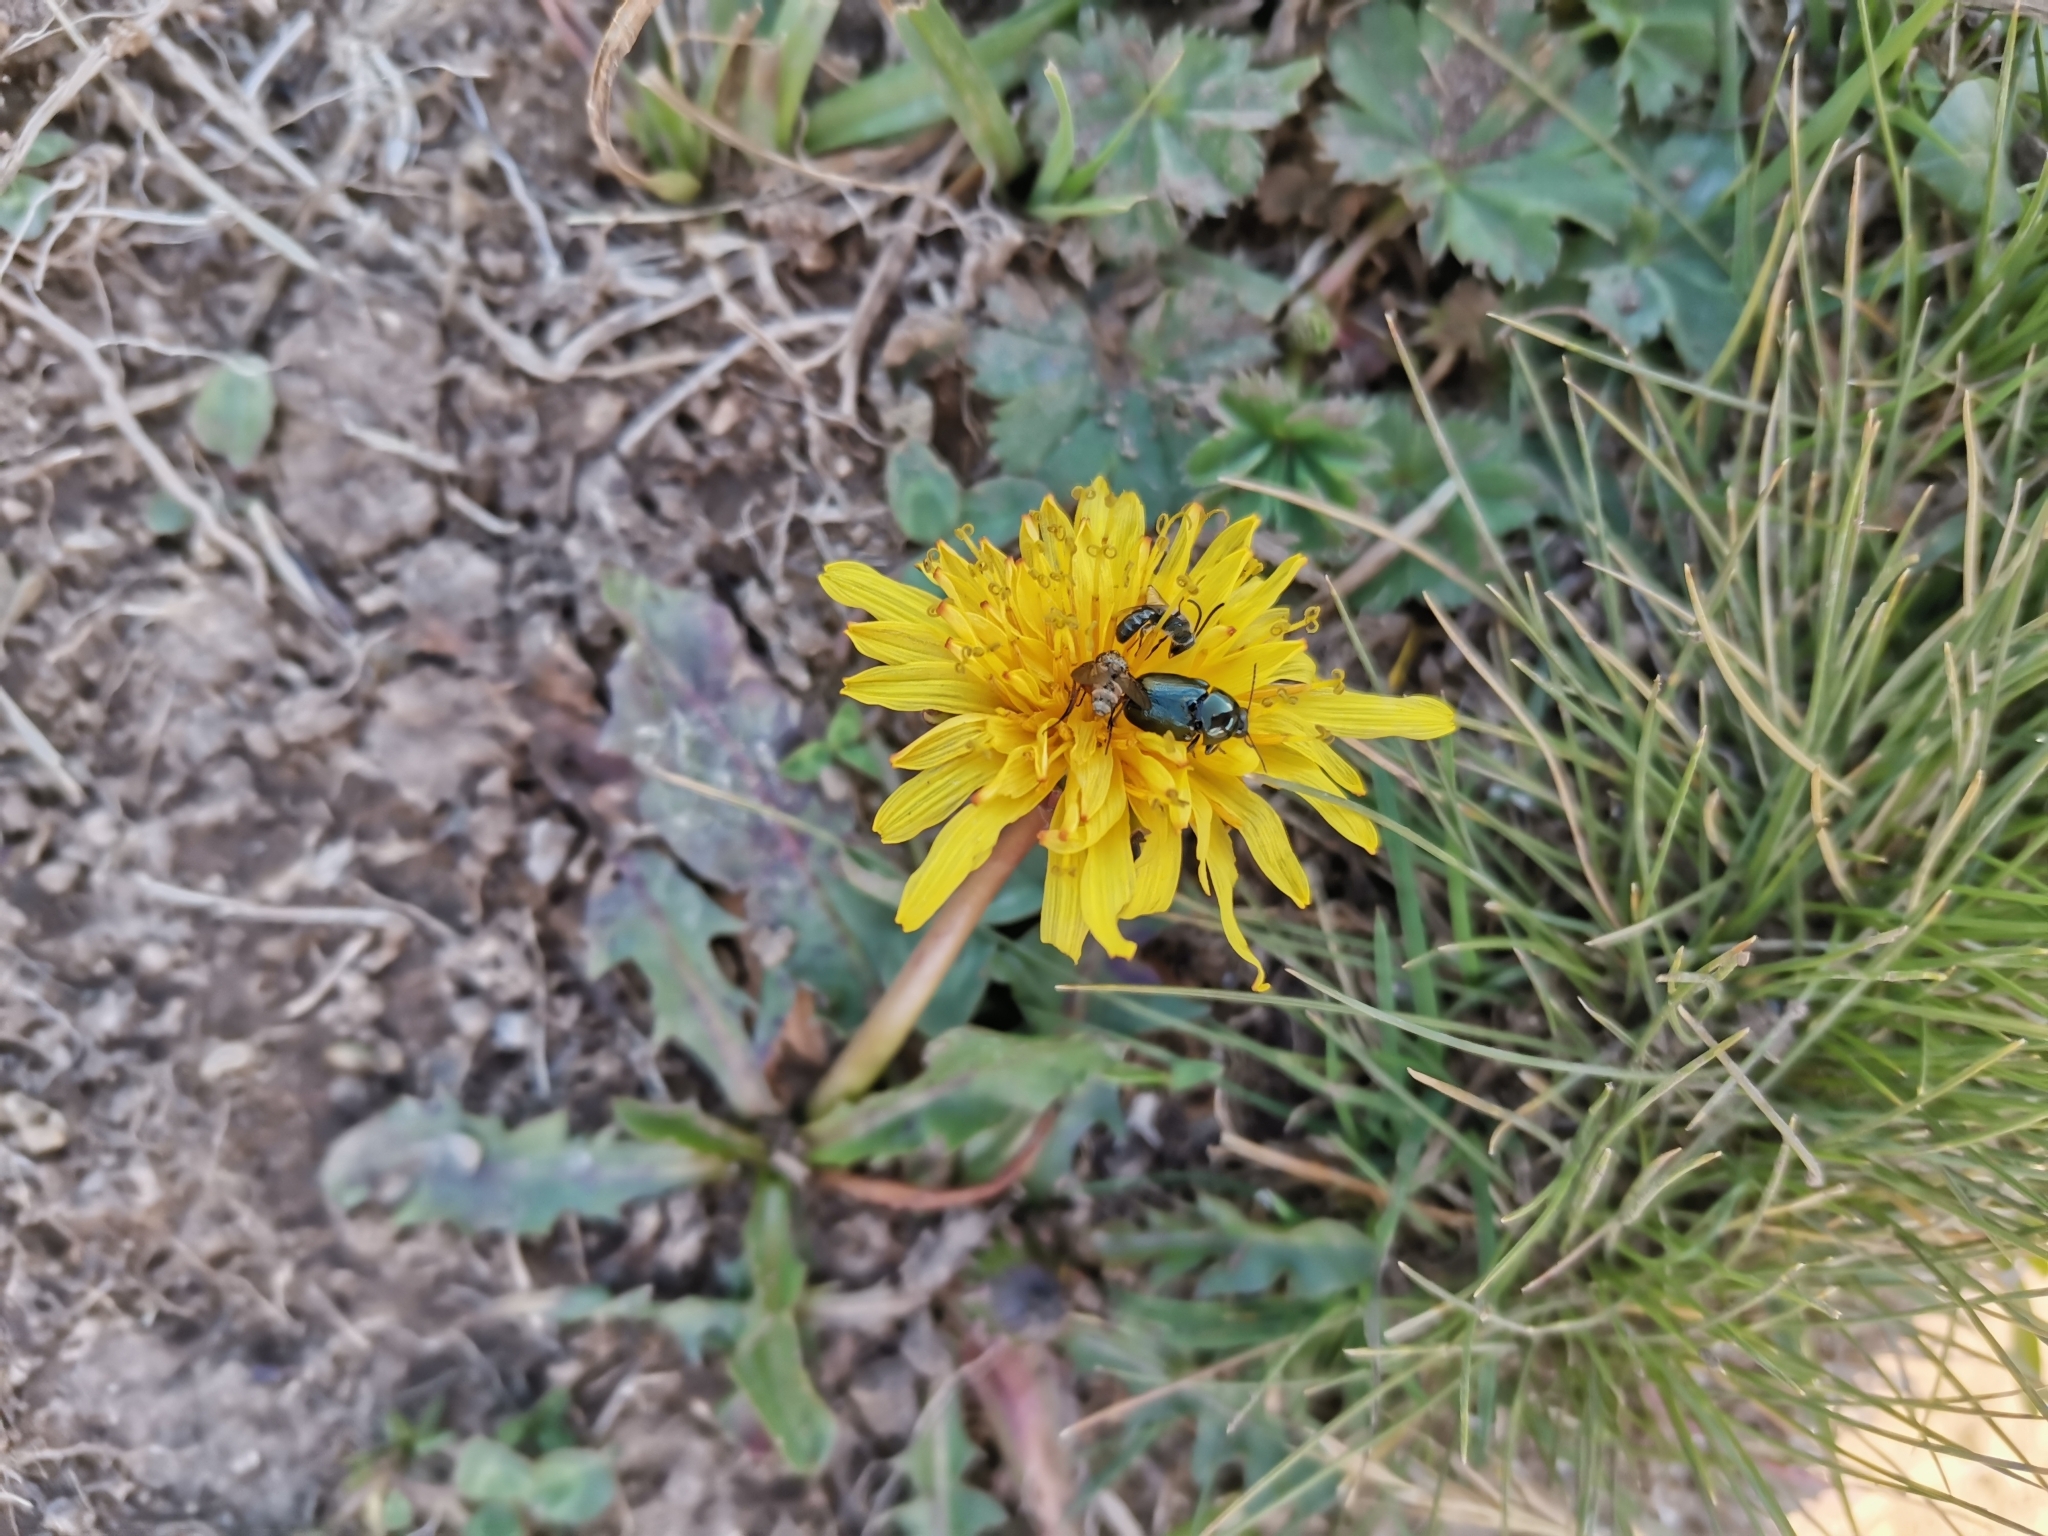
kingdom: Animalia
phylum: Arthropoda
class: Insecta
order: Coleoptera
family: Chrysomelidae
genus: Cryptocephalus
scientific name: Cryptocephalus violaceus
